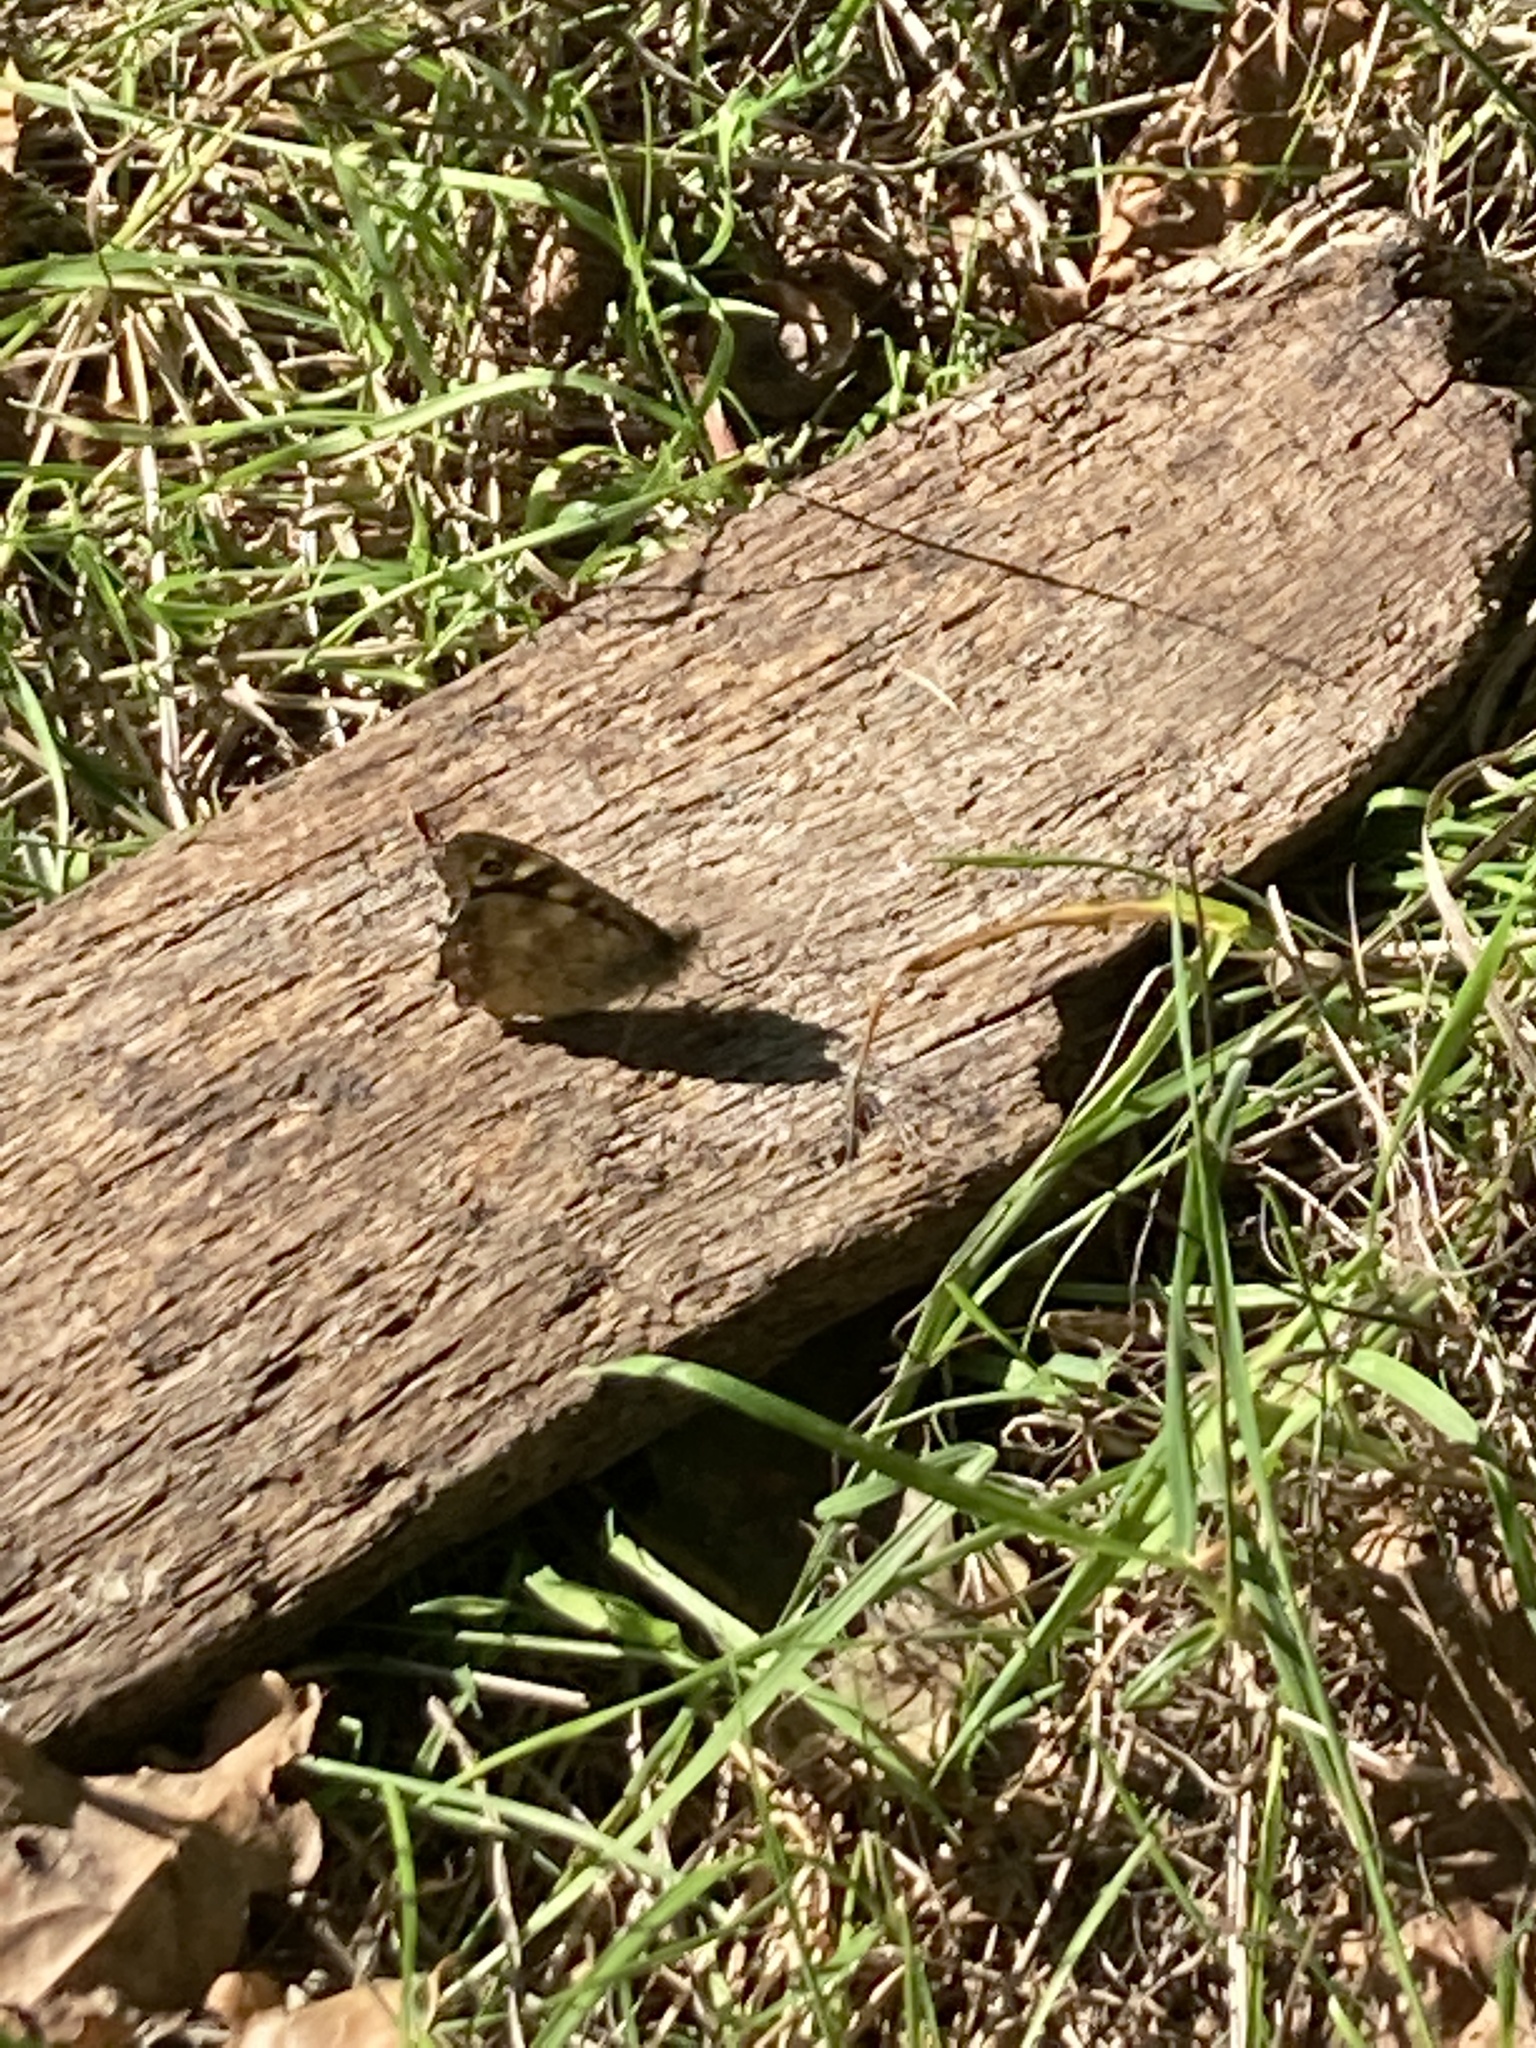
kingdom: Animalia
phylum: Arthropoda
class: Insecta
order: Lepidoptera
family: Nymphalidae
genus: Pararge
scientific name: Pararge aegeria
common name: Speckled wood
